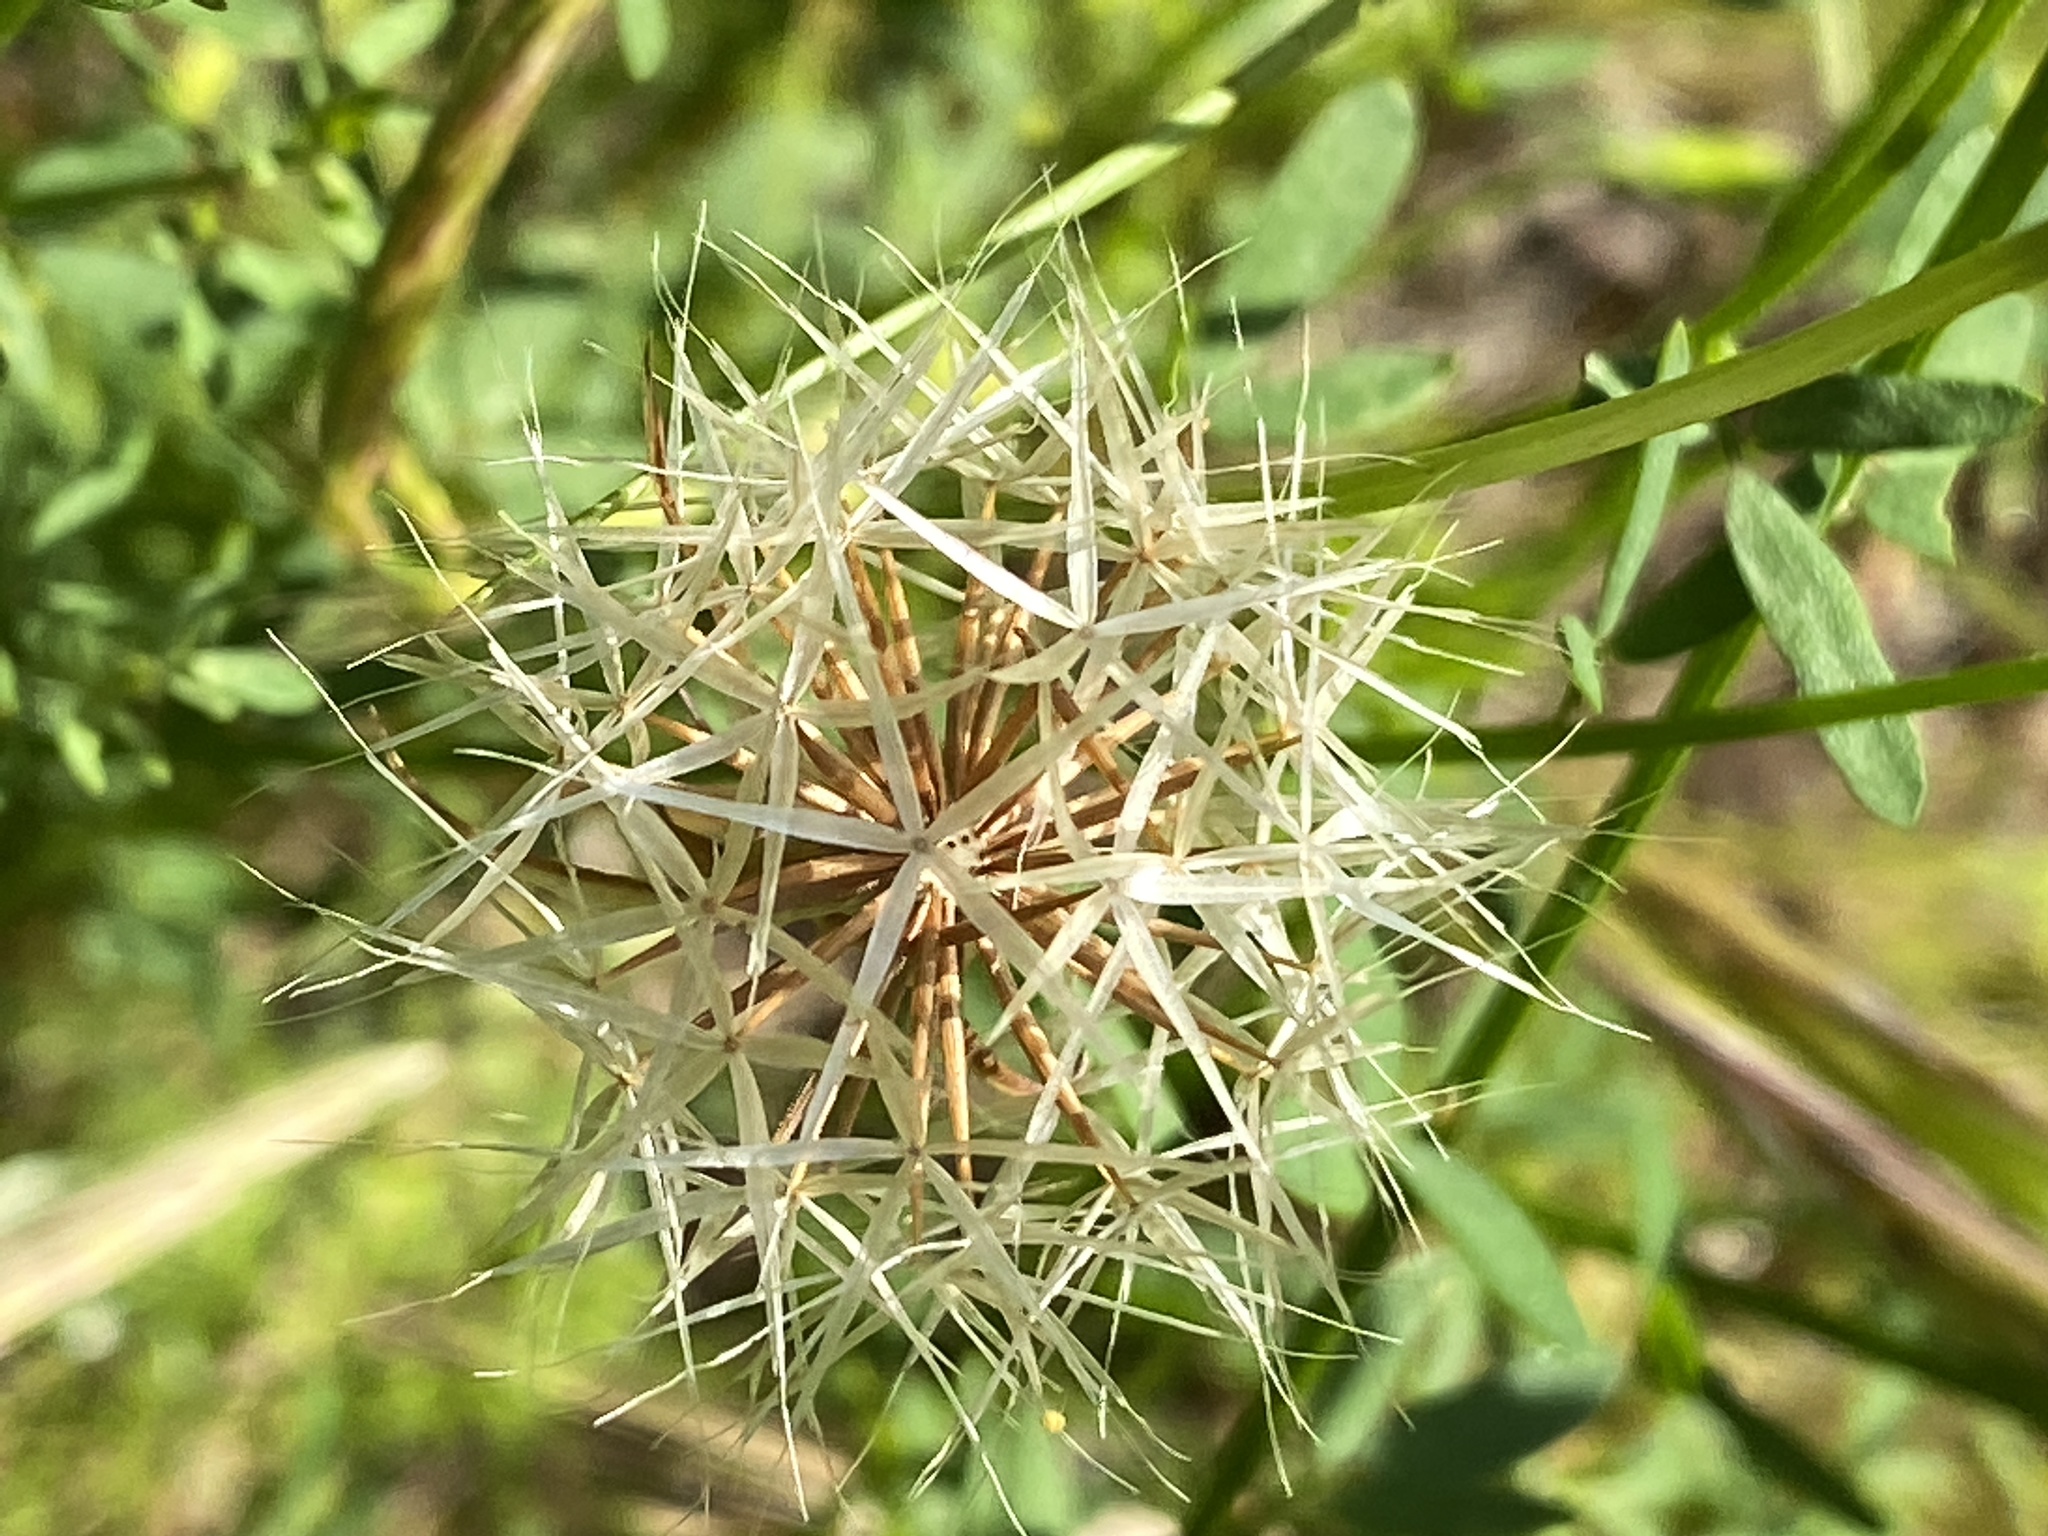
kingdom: Plantae
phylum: Tracheophyta
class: Magnoliopsida
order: Asterales
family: Asteraceae
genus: Microseris
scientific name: Microseris lindleyi
